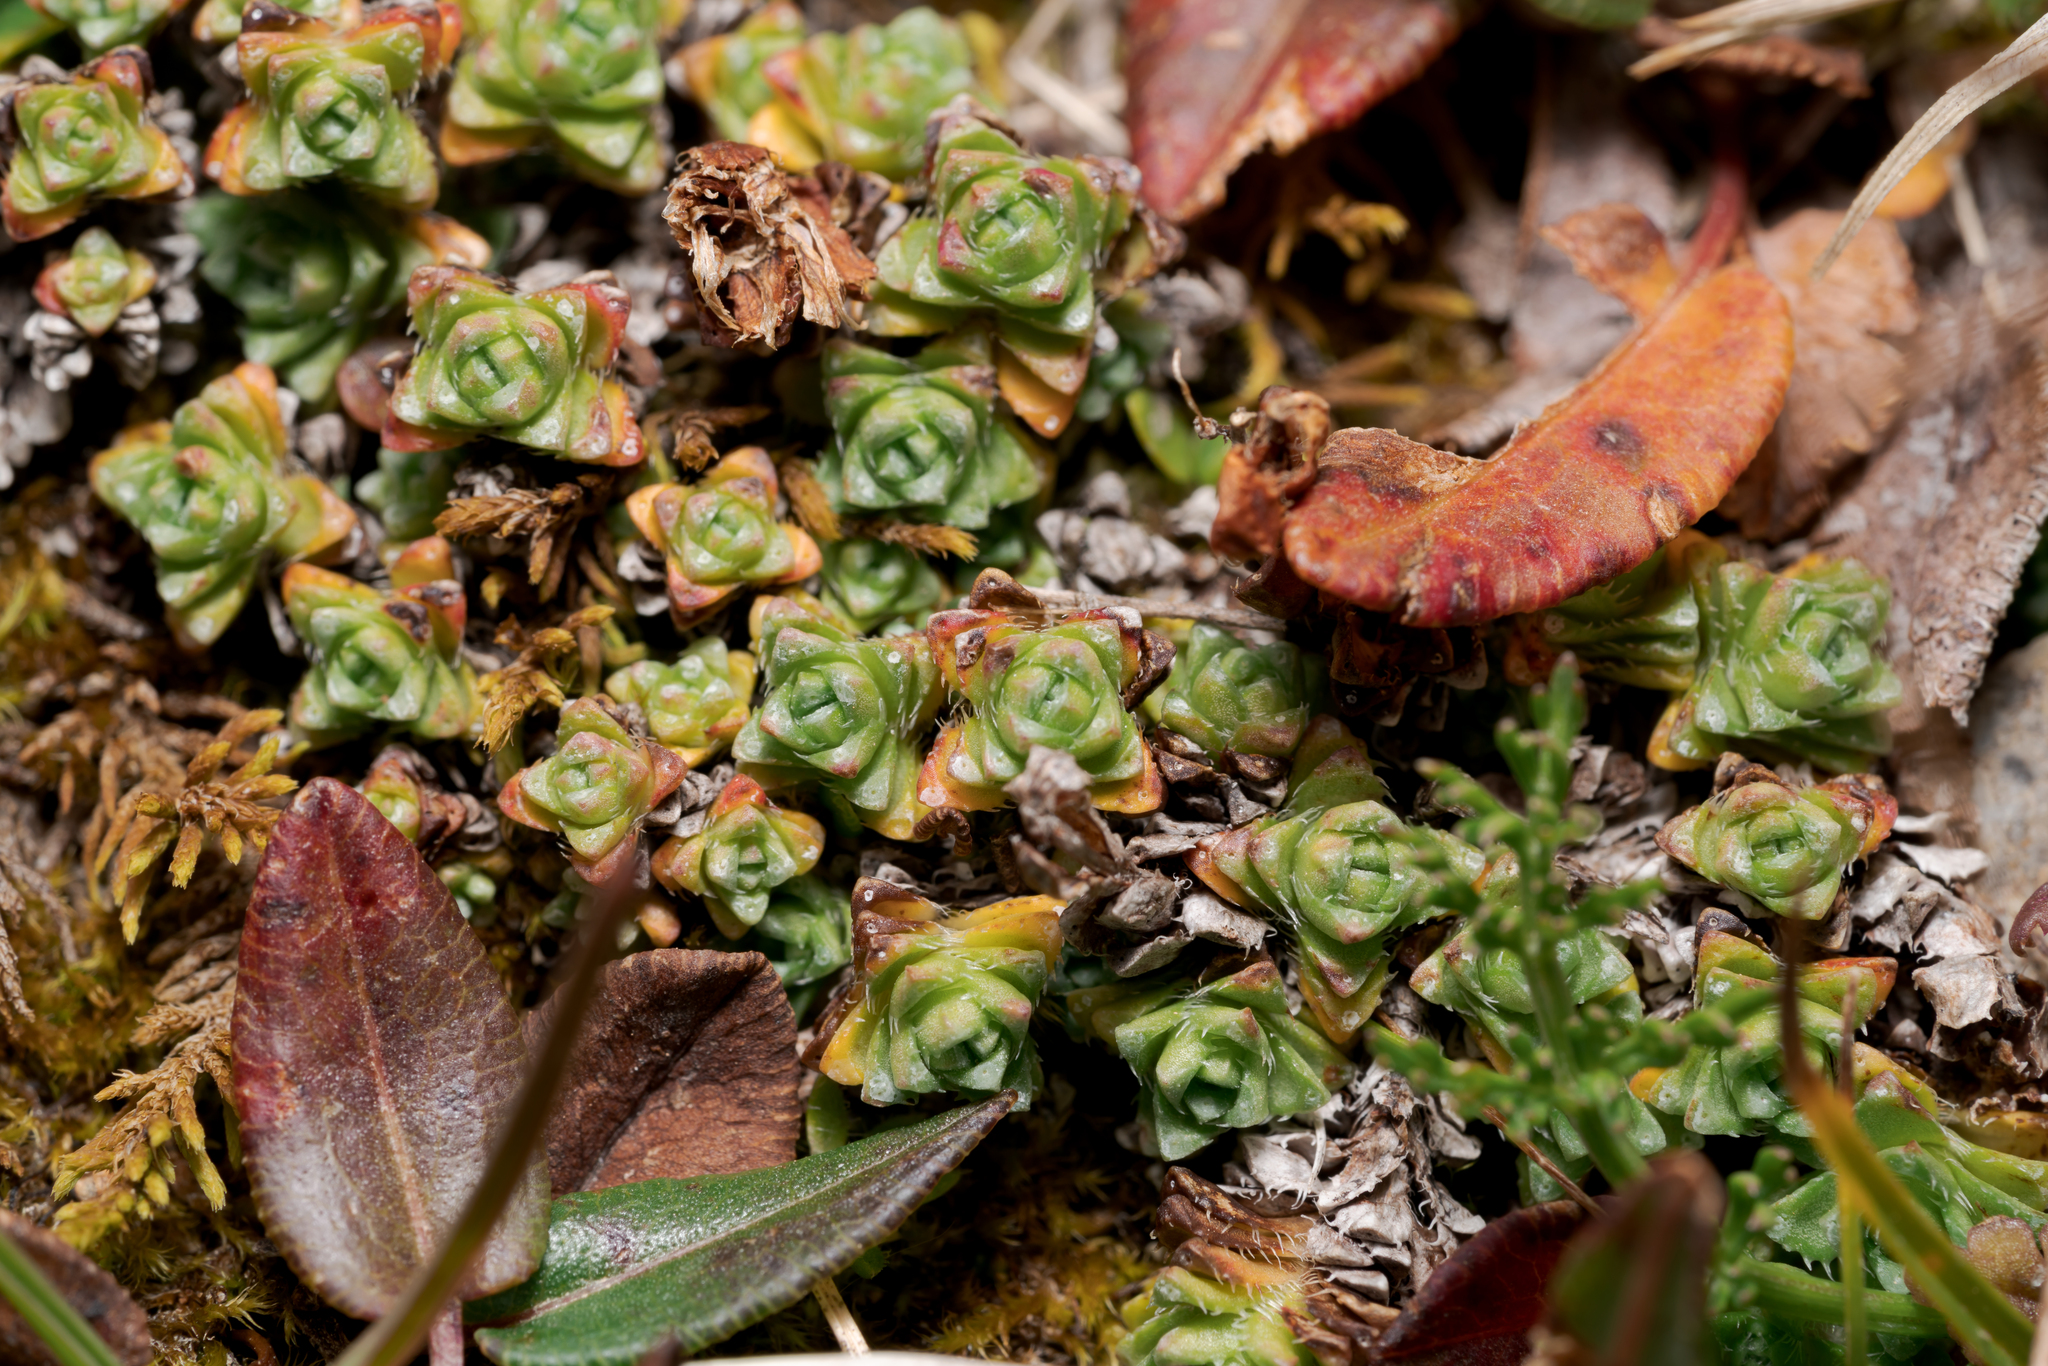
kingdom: Plantae
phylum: Tracheophyta
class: Magnoliopsida
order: Saxifragales
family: Saxifragaceae
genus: Saxifraga
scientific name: Saxifraga oppositifolia
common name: Purple saxifrage
